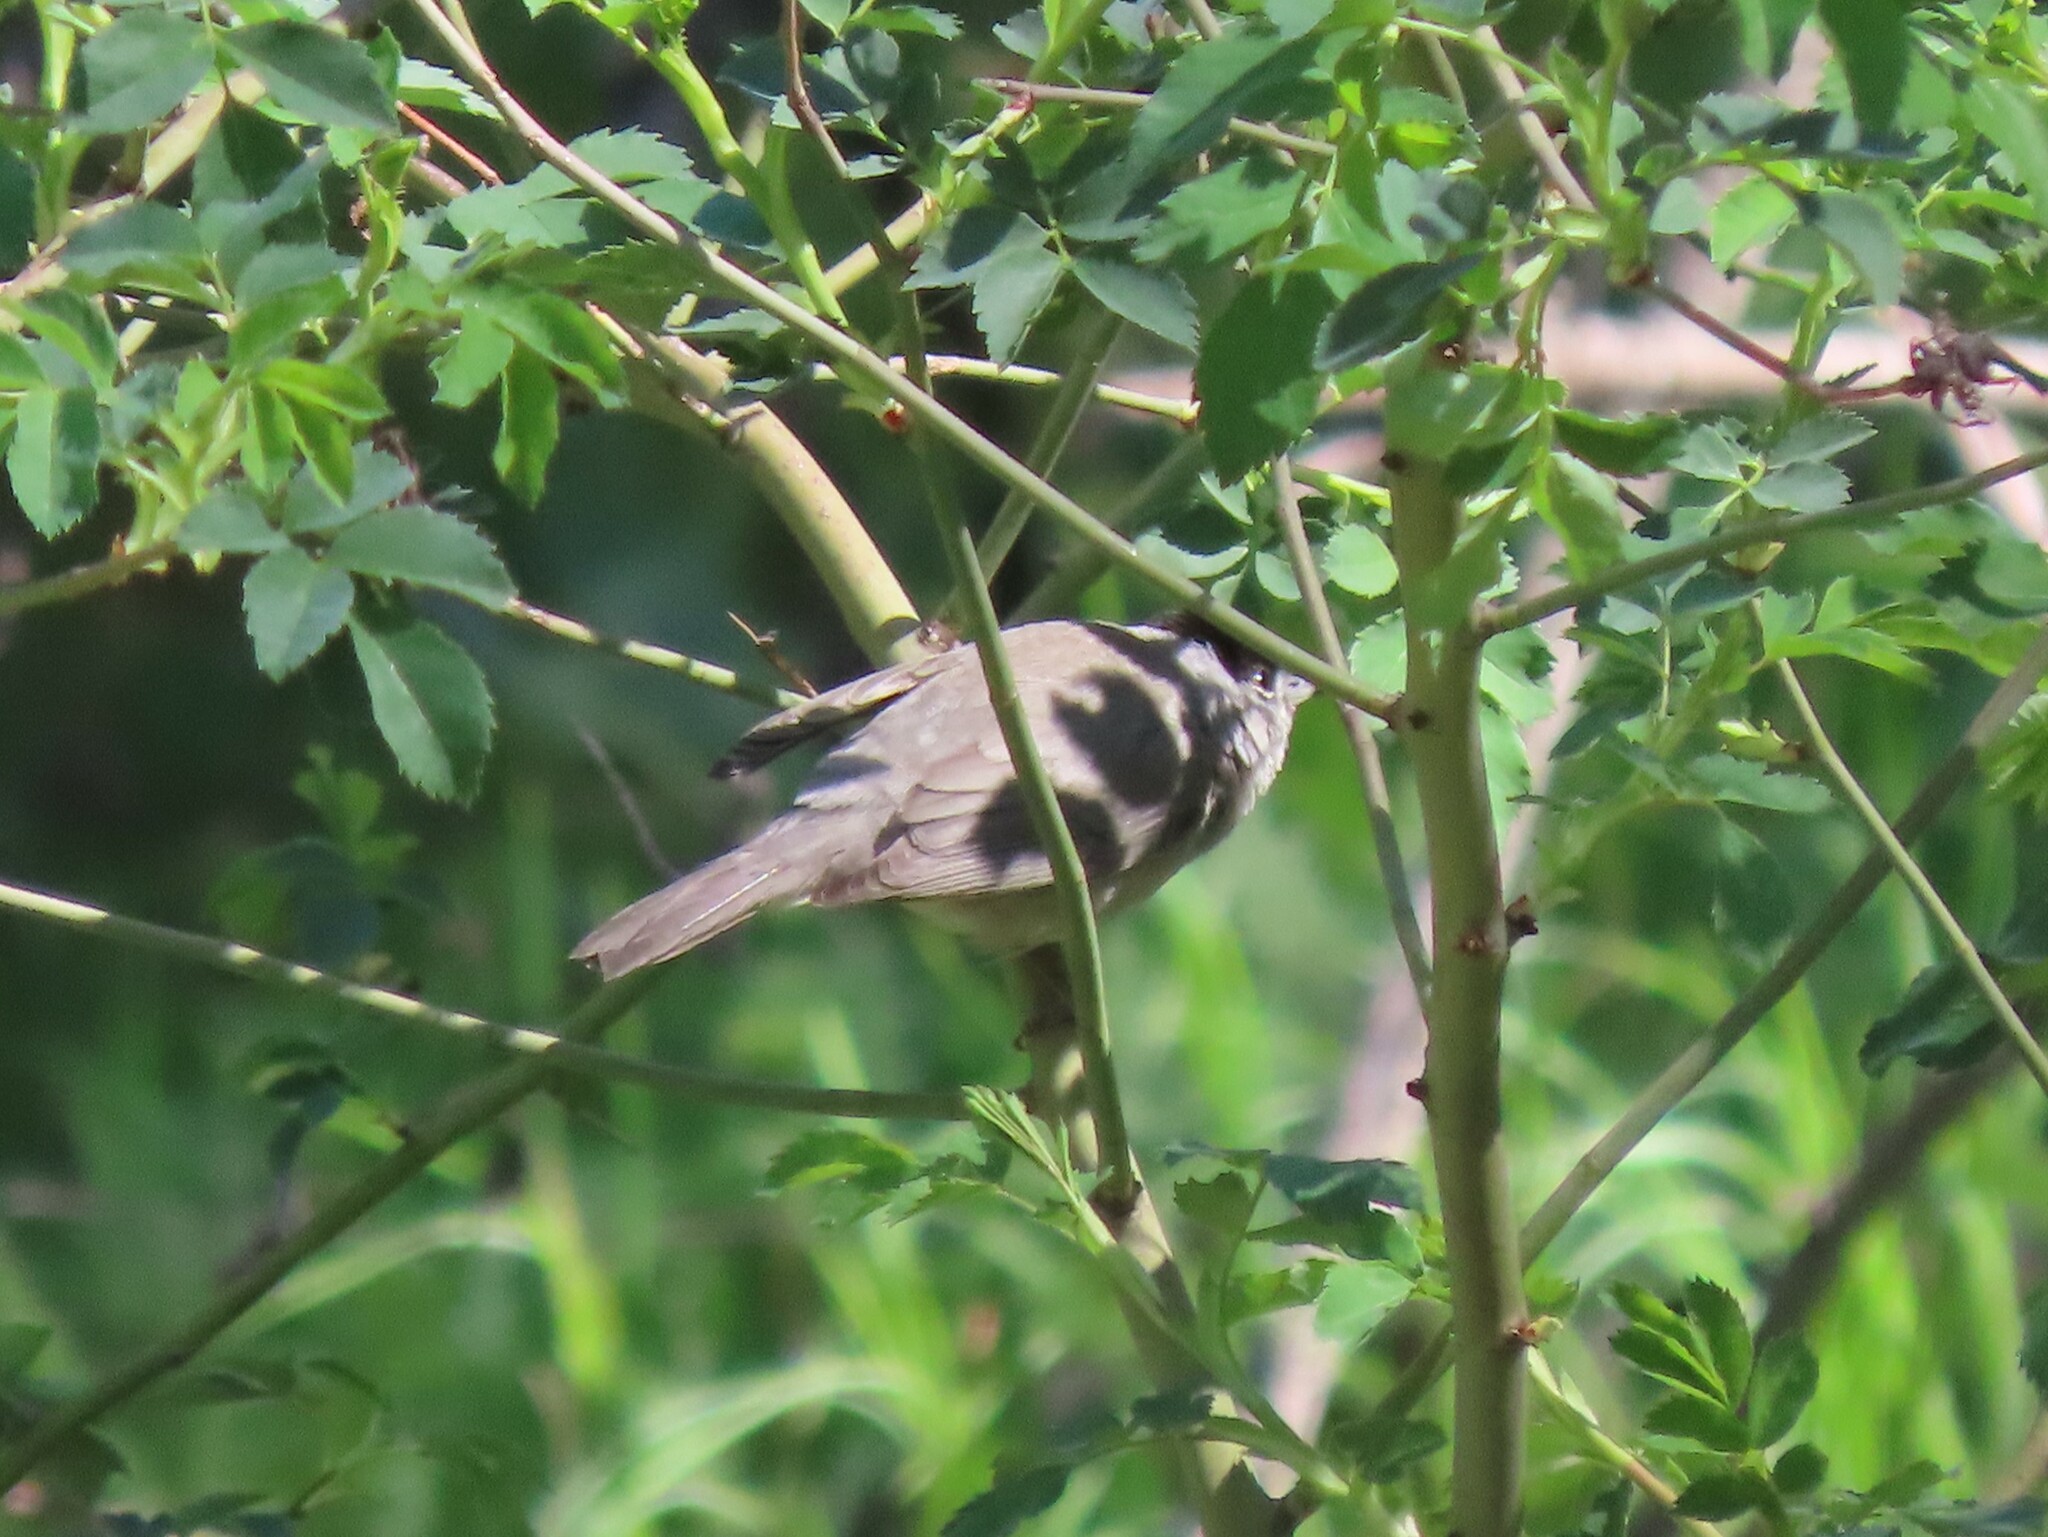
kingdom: Animalia
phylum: Chordata
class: Aves
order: Passeriformes
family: Sylviidae
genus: Sylvia
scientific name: Sylvia atricapilla
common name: Eurasian blackcap
